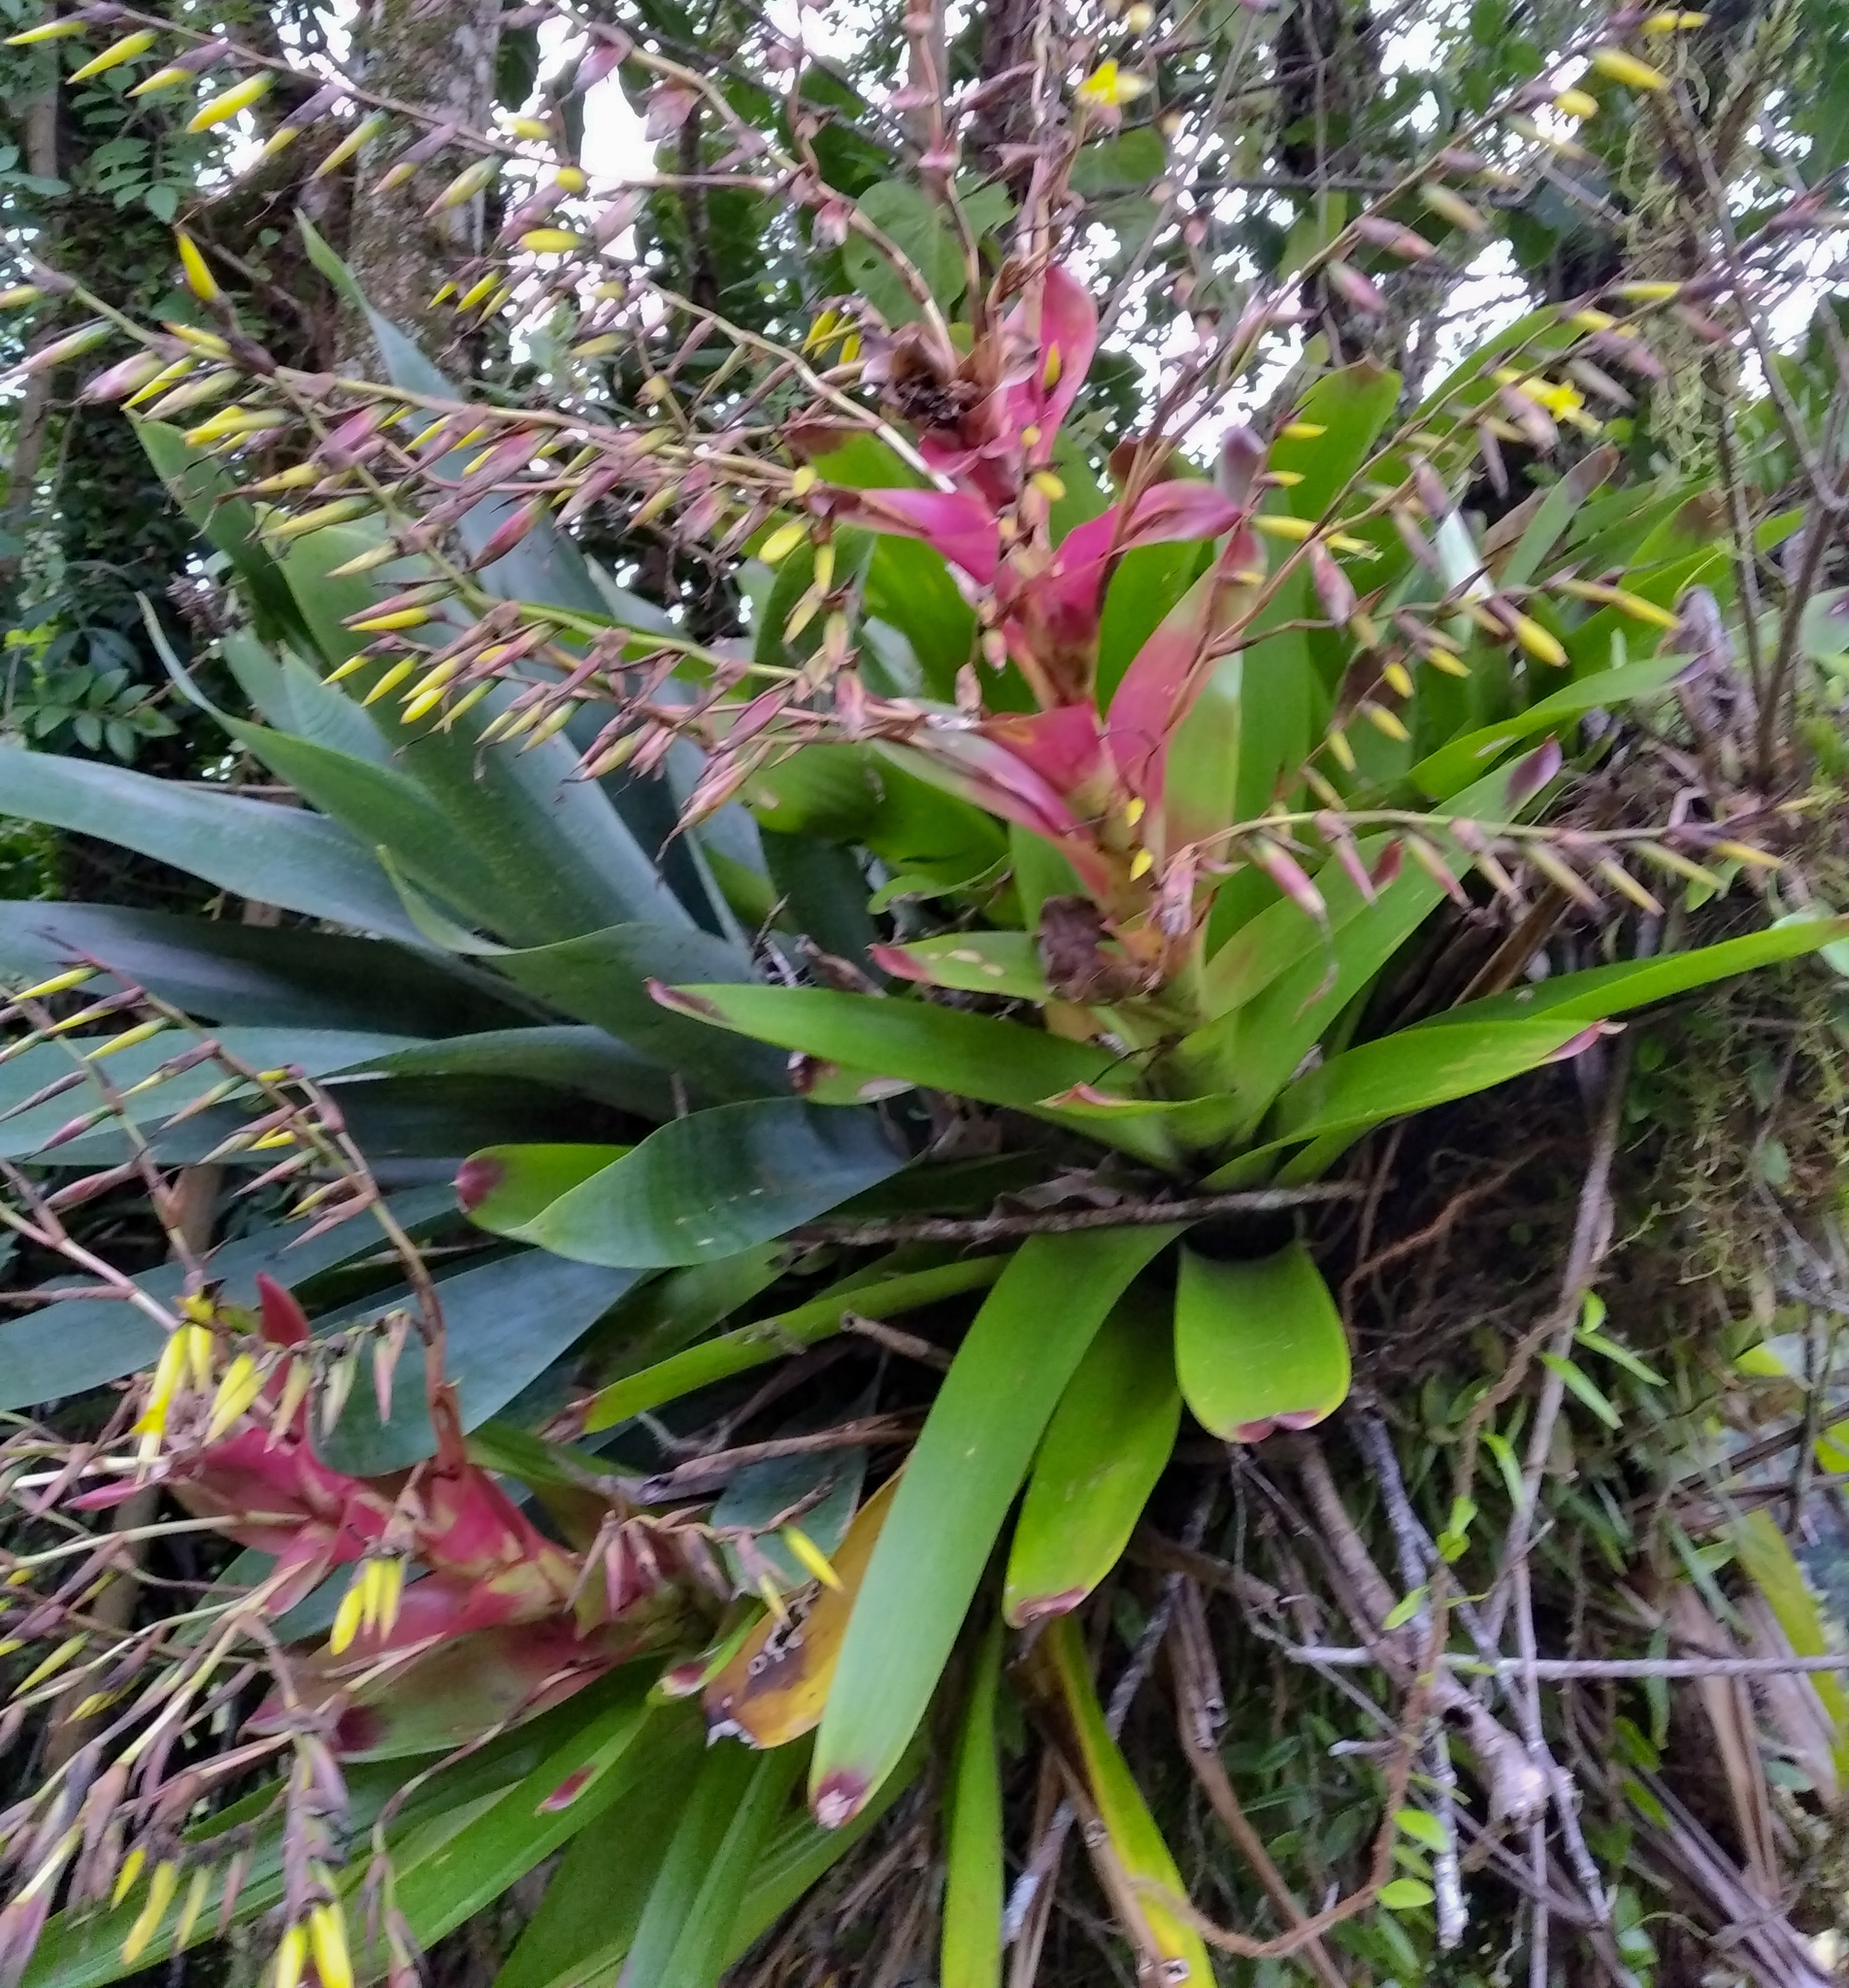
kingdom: Plantae
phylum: Tracheophyta
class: Liliopsida
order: Poales
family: Bromeliaceae
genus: Vriesea
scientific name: Vriesea philippocoburgi
